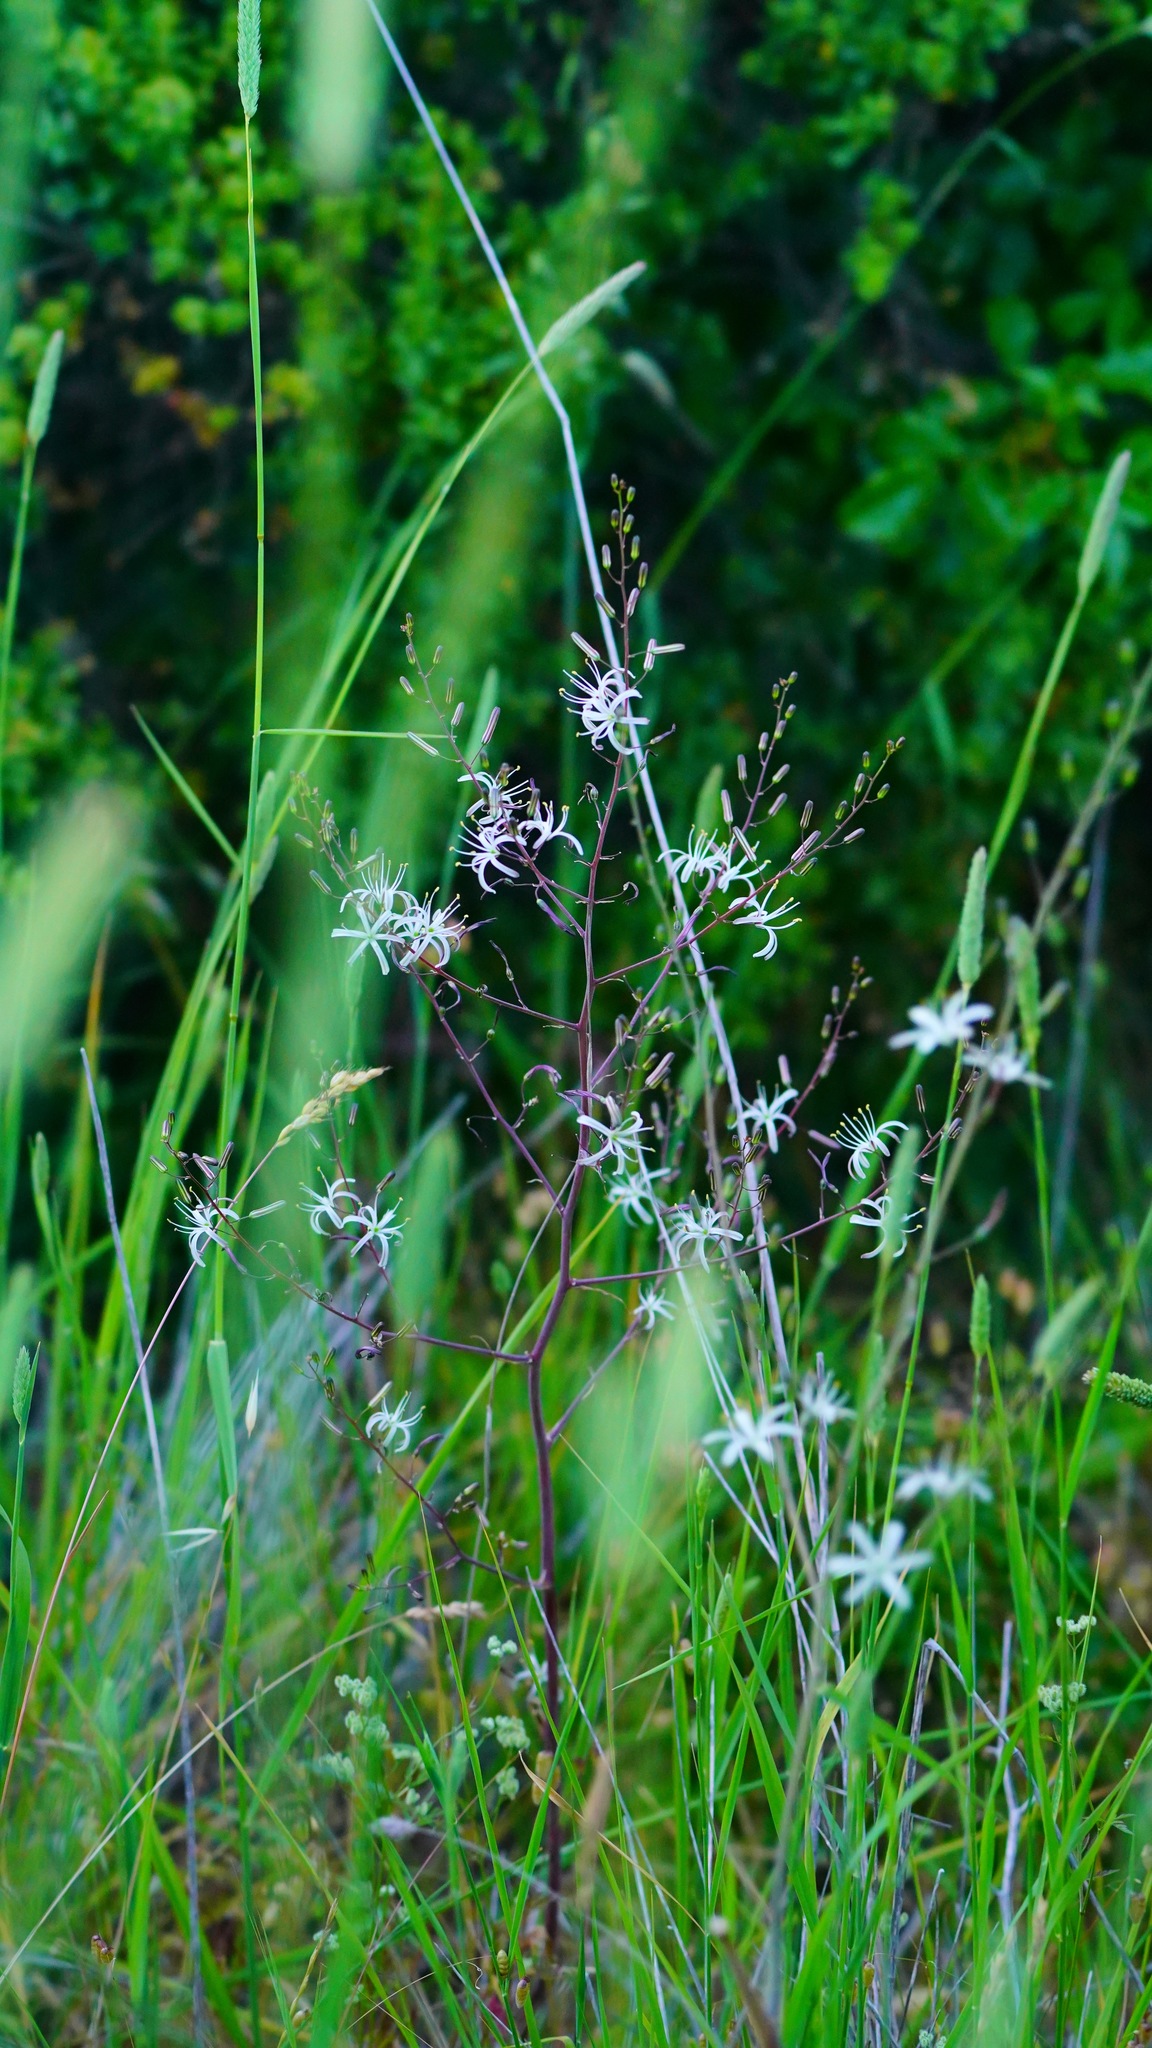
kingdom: Plantae
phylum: Tracheophyta
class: Liliopsida
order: Asparagales
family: Asparagaceae
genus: Chlorogalum
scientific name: Chlorogalum pomeridianum
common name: Amole
